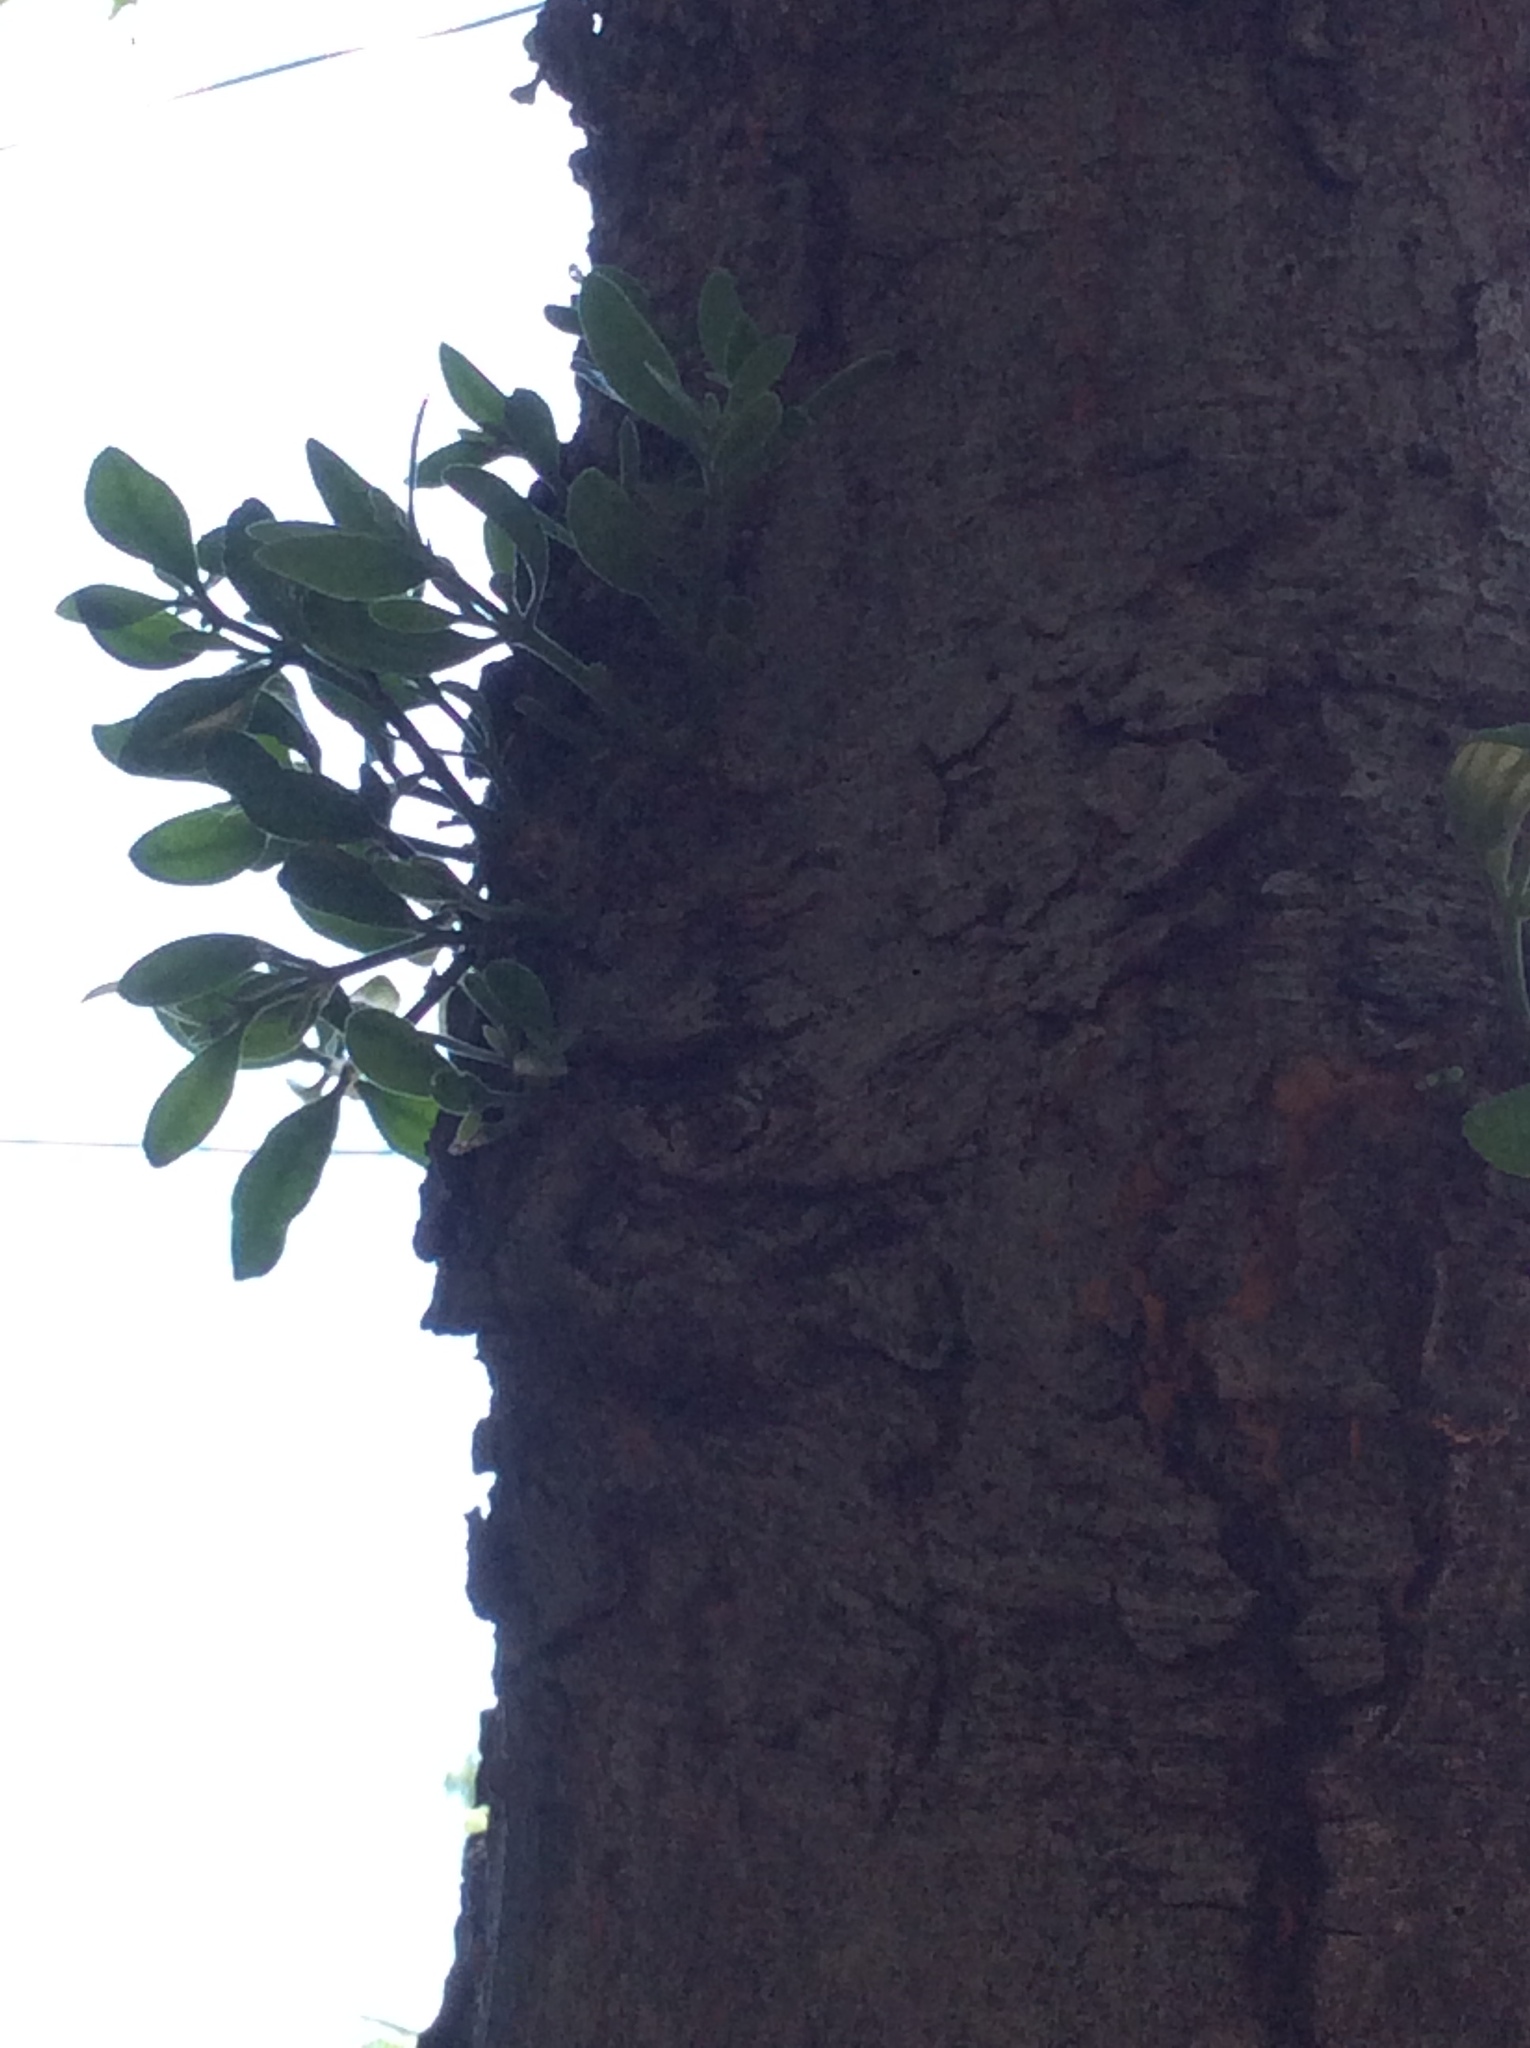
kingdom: Plantae
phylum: Tracheophyta
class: Magnoliopsida
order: Santalales
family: Viscaceae
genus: Phoradendron
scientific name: Phoradendron leucarpum
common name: Pacific mistletoe
